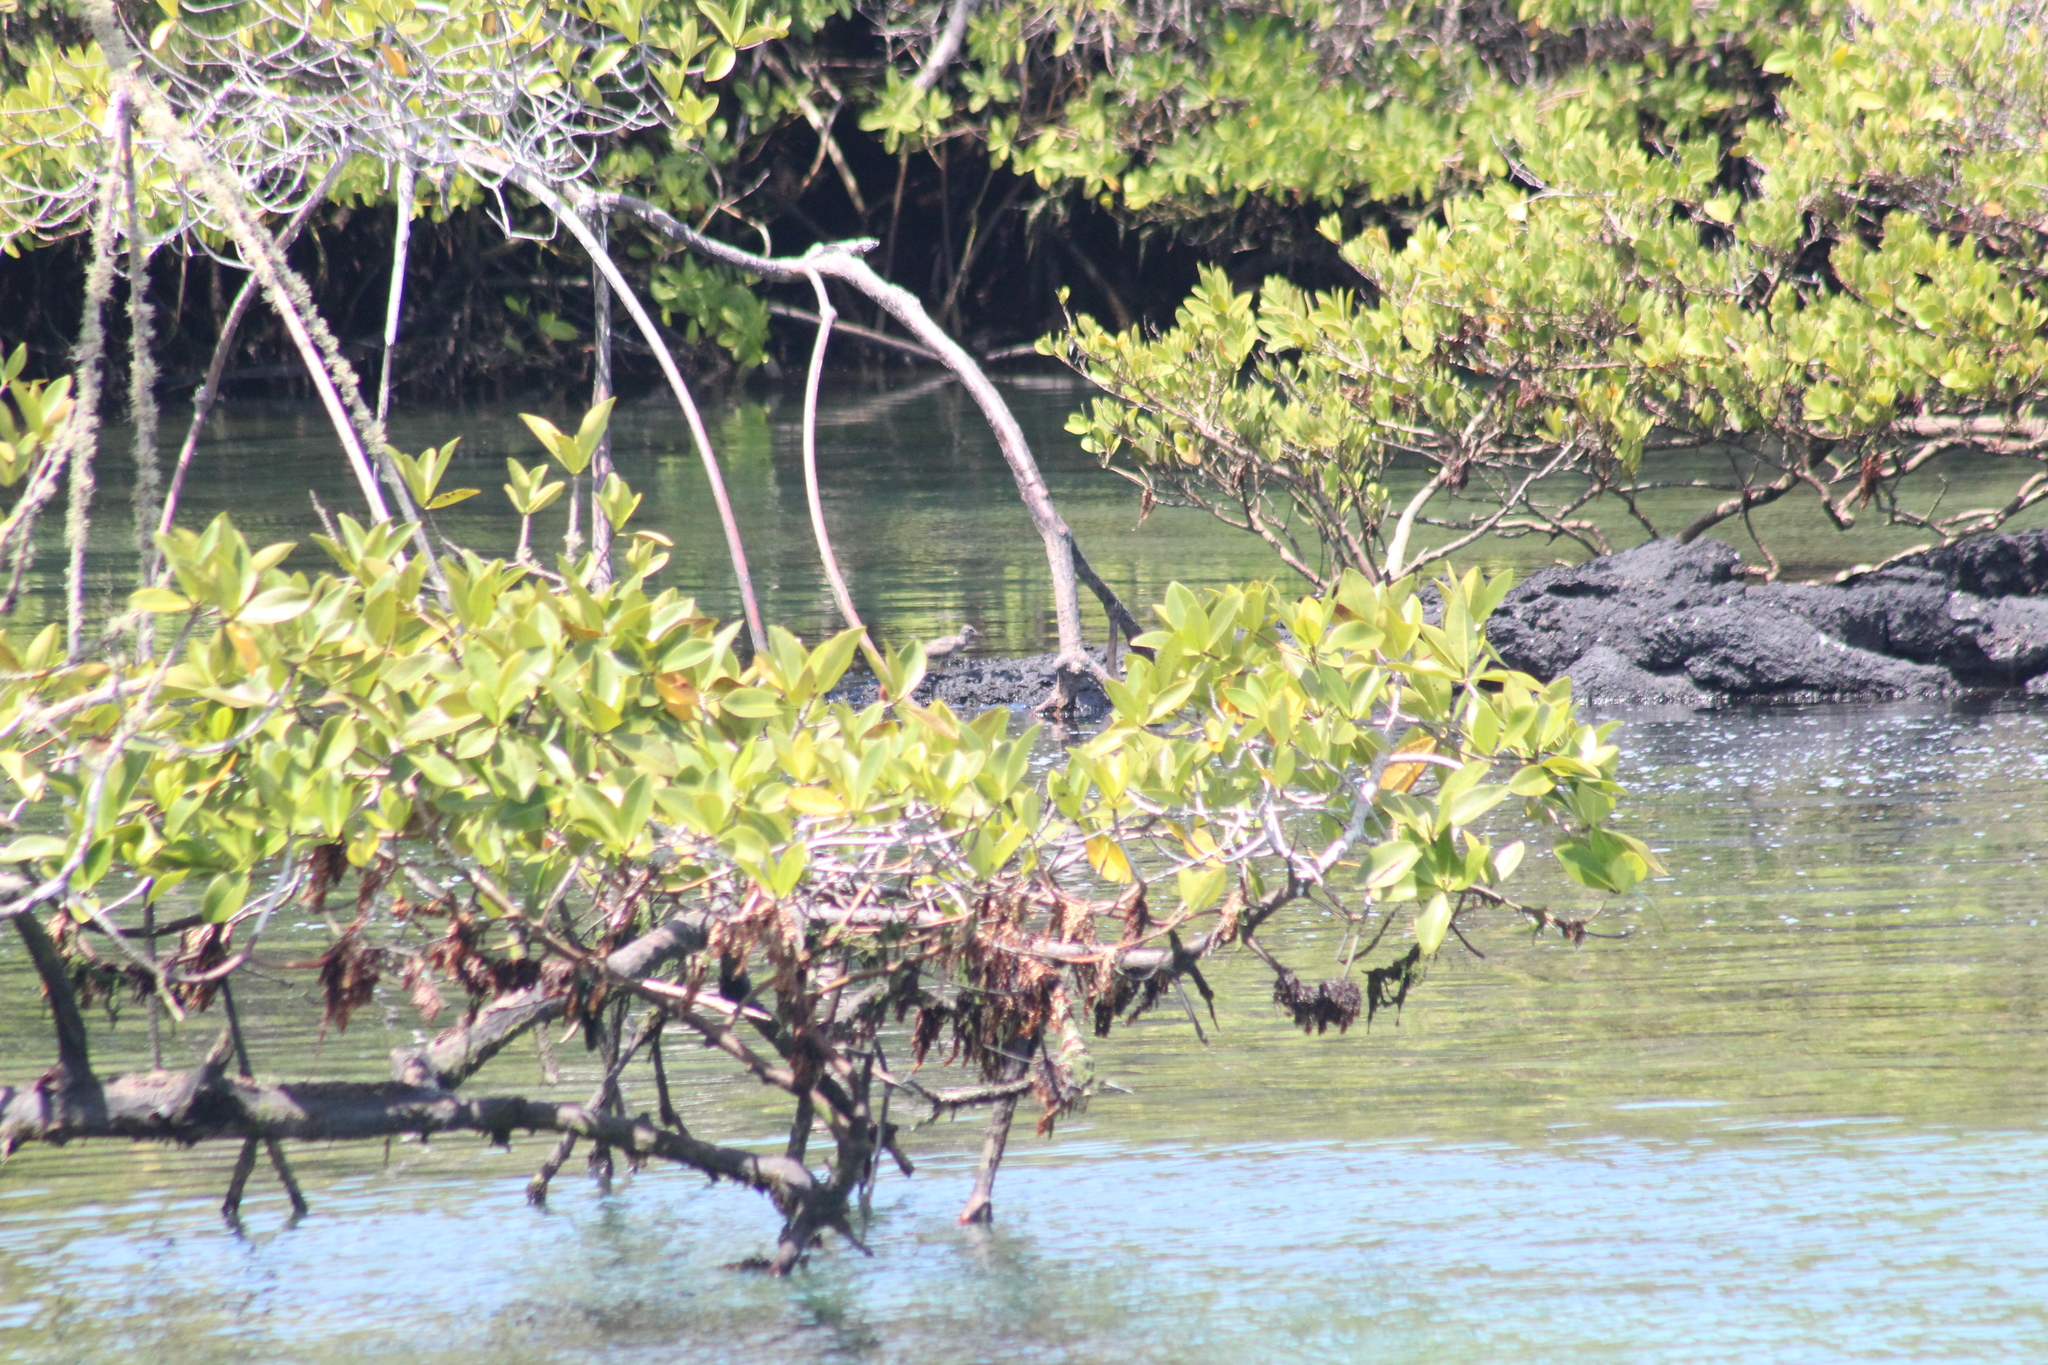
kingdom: Animalia
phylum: Chordata
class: Aves
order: Charadriiformes
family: Scolopacidae
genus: Tringa
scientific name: Tringa incana
